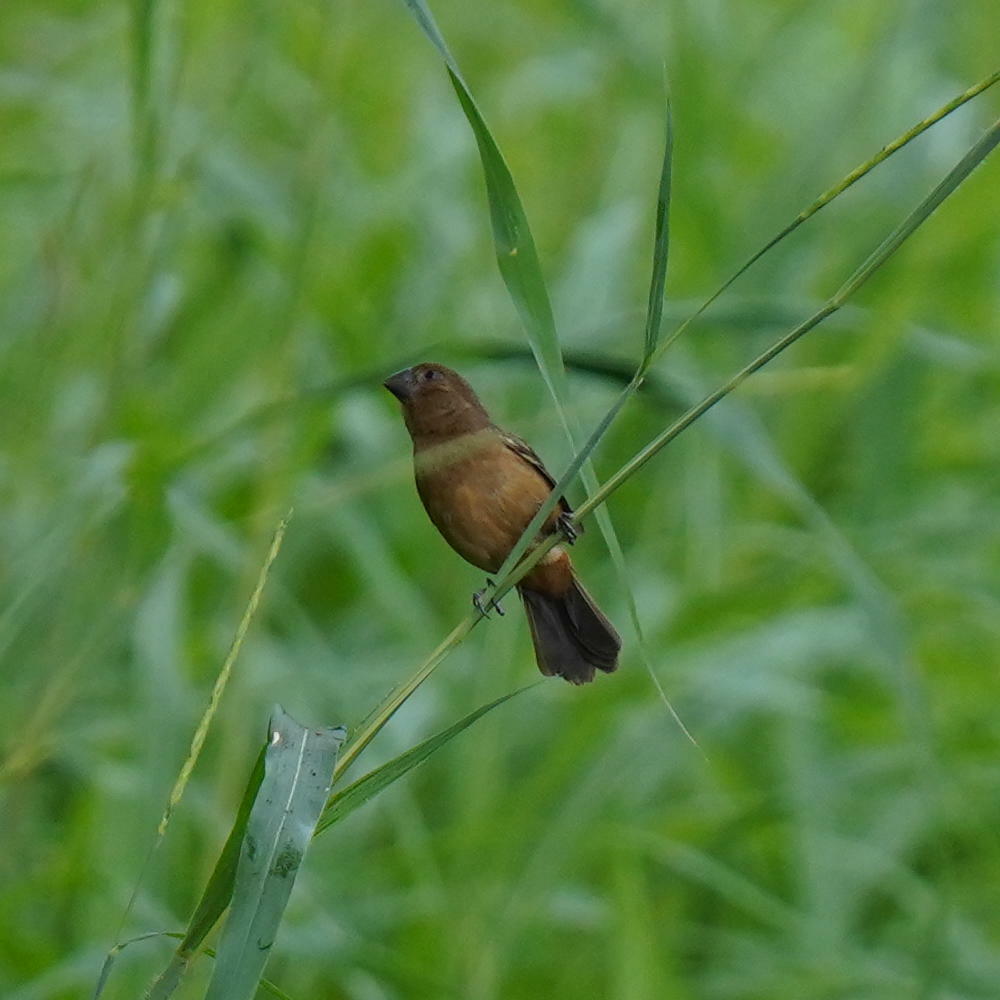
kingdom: Animalia
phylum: Chordata
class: Aves
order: Passeriformes
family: Thraupidae
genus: Sporophila
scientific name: Sporophila funerea
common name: Thick-billed seed-finch
